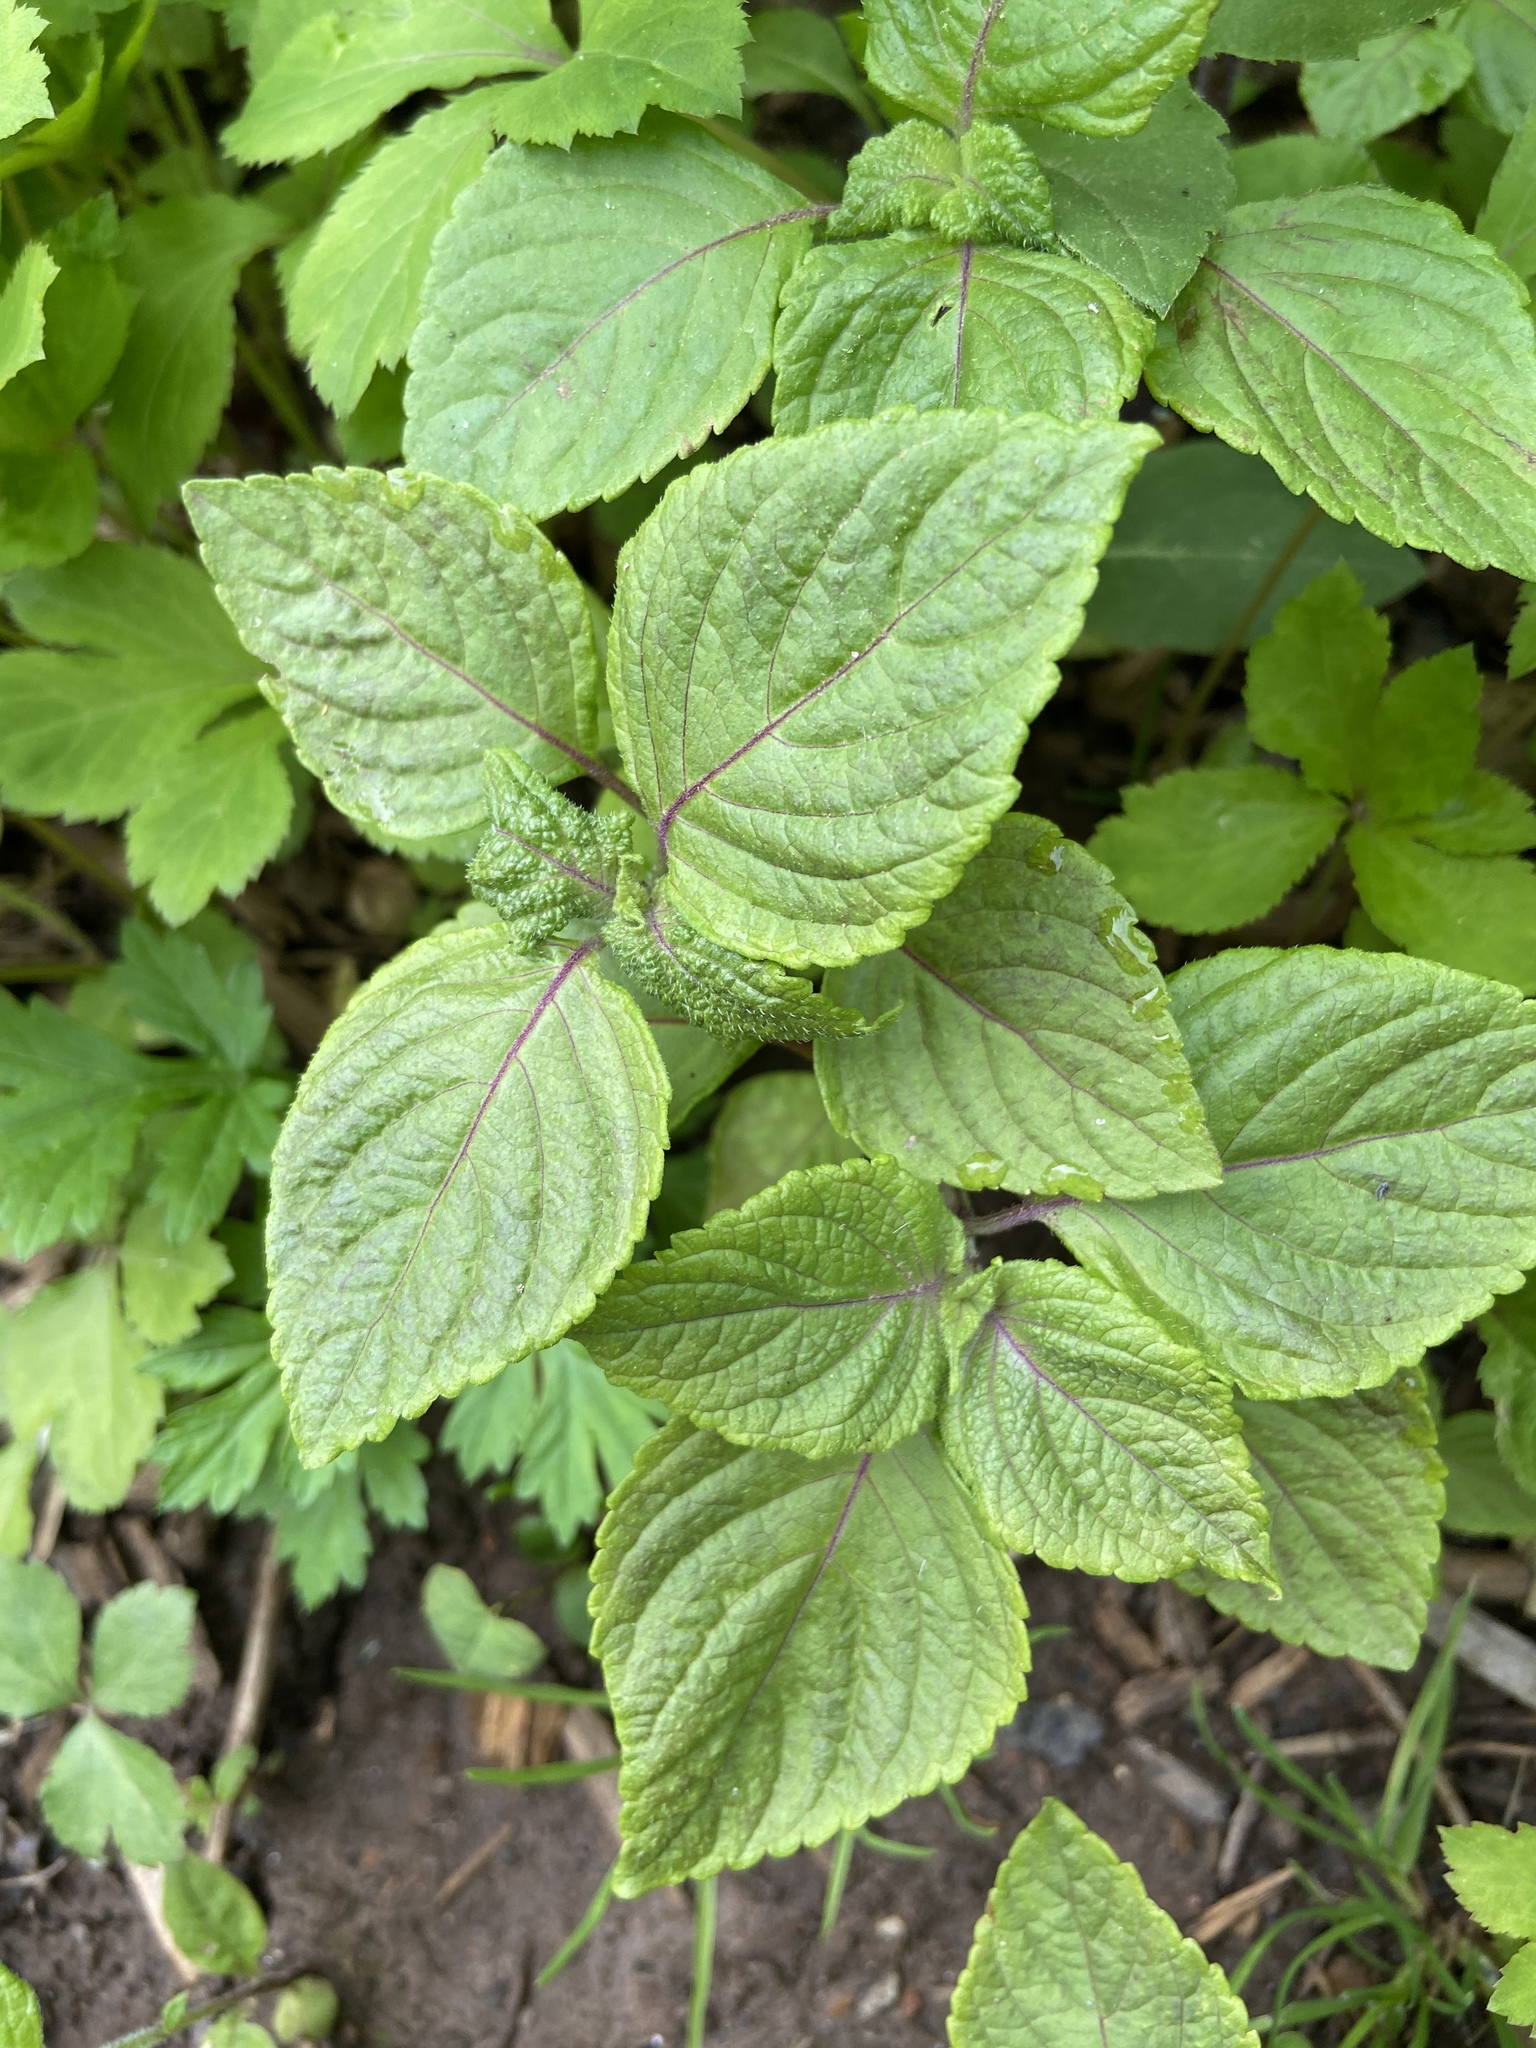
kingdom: Plantae
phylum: Tracheophyta
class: Magnoliopsida
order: Lamiales
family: Lamiaceae
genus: Perilla
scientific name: Perilla frutescens
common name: Perilla
